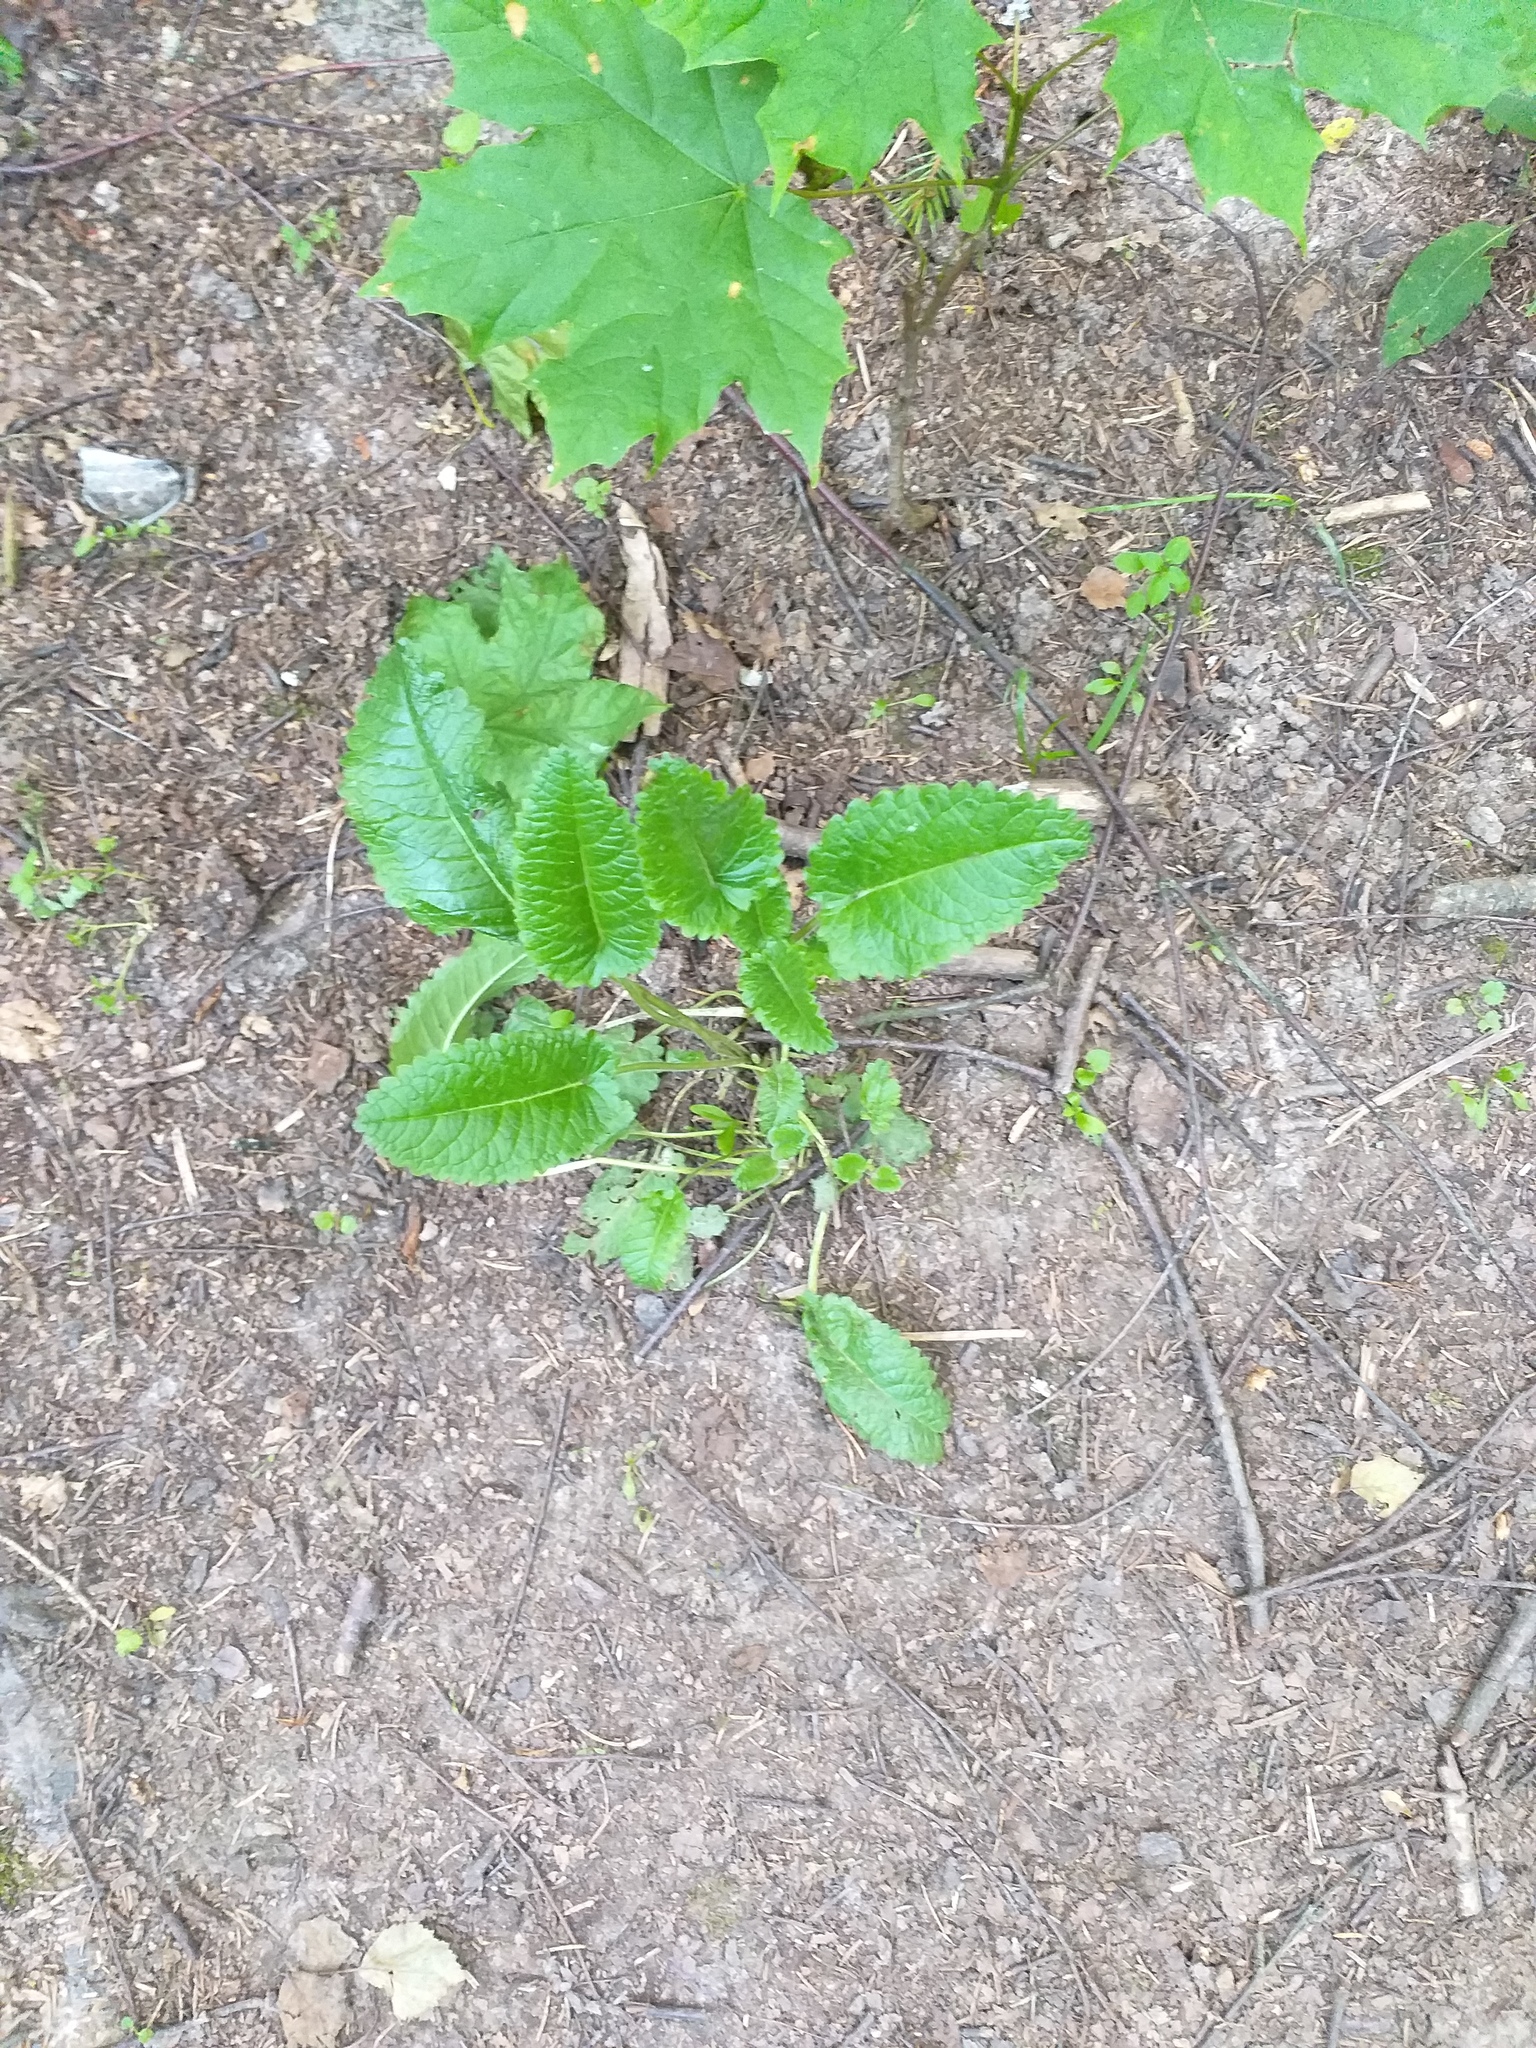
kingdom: Plantae
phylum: Tracheophyta
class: Magnoliopsida
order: Lamiales
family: Lamiaceae
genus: Betonica
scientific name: Betonica officinalis
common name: Bishop's-wort
